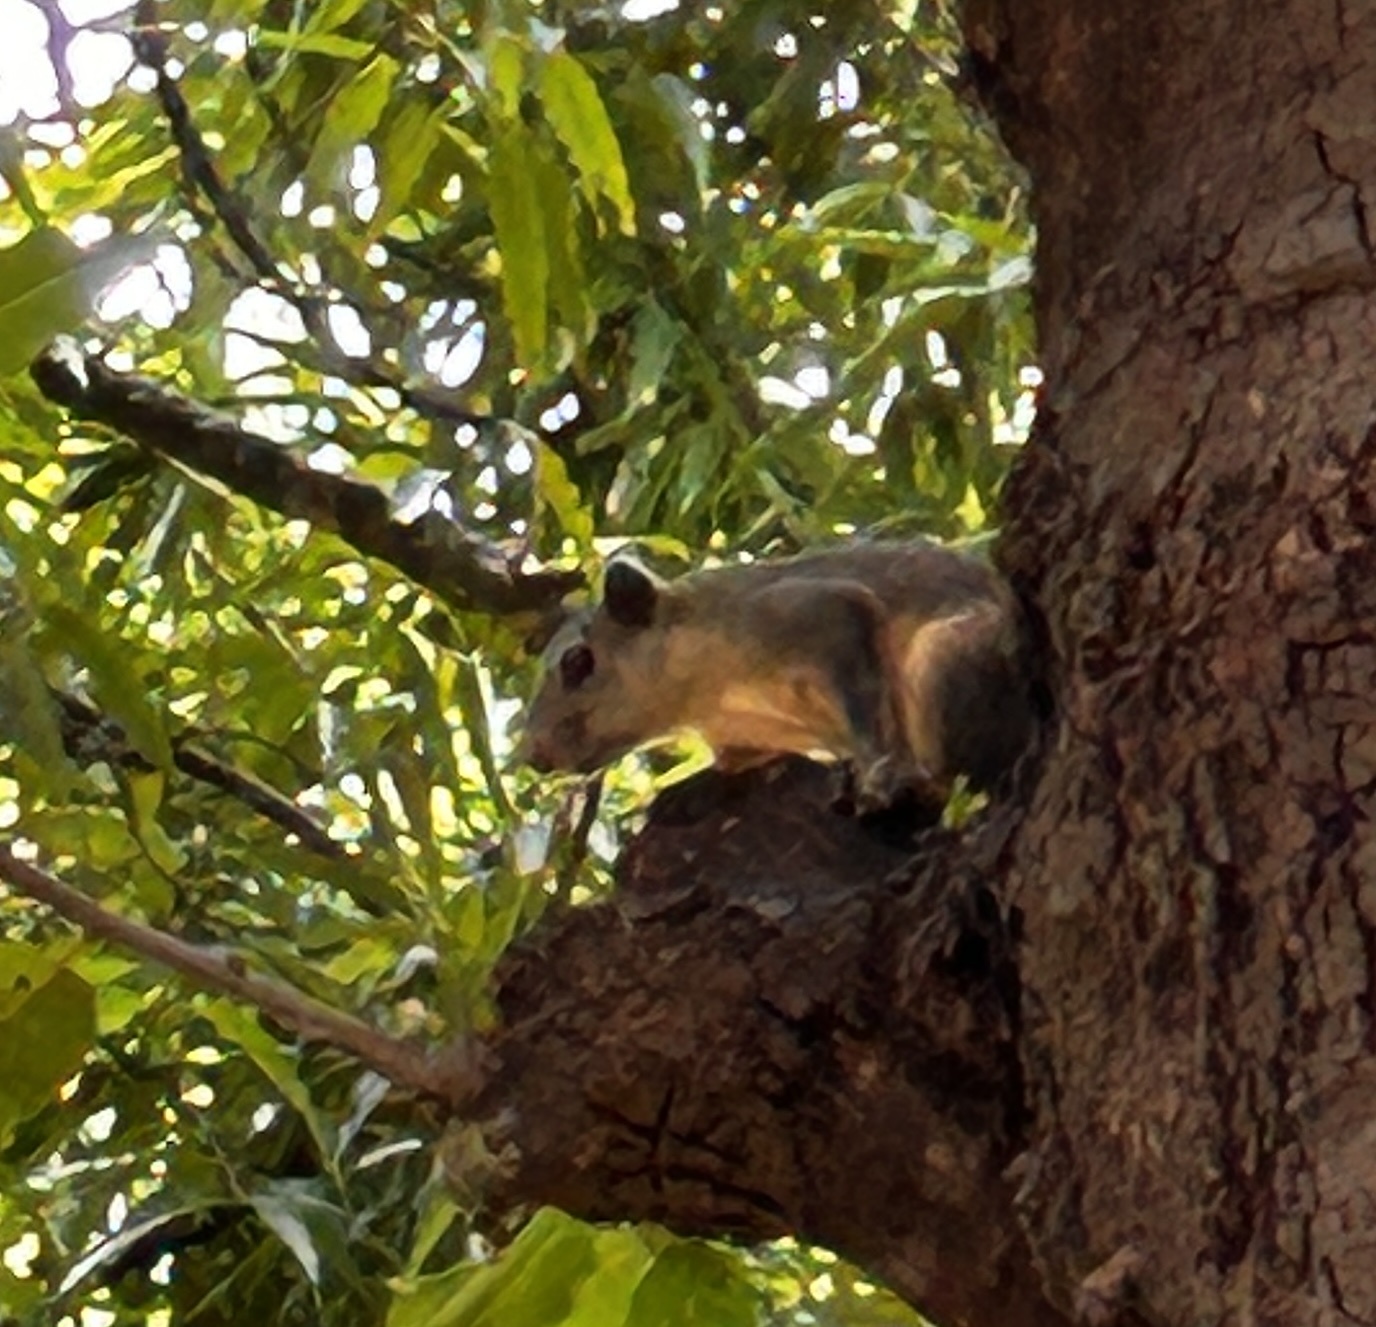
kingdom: Animalia
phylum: Chordata
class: Mammalia
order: Rodentia
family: Sciuridae
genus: Callosciurus
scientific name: Callosciurus pygerythrus
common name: Irrawaddy squirrel
